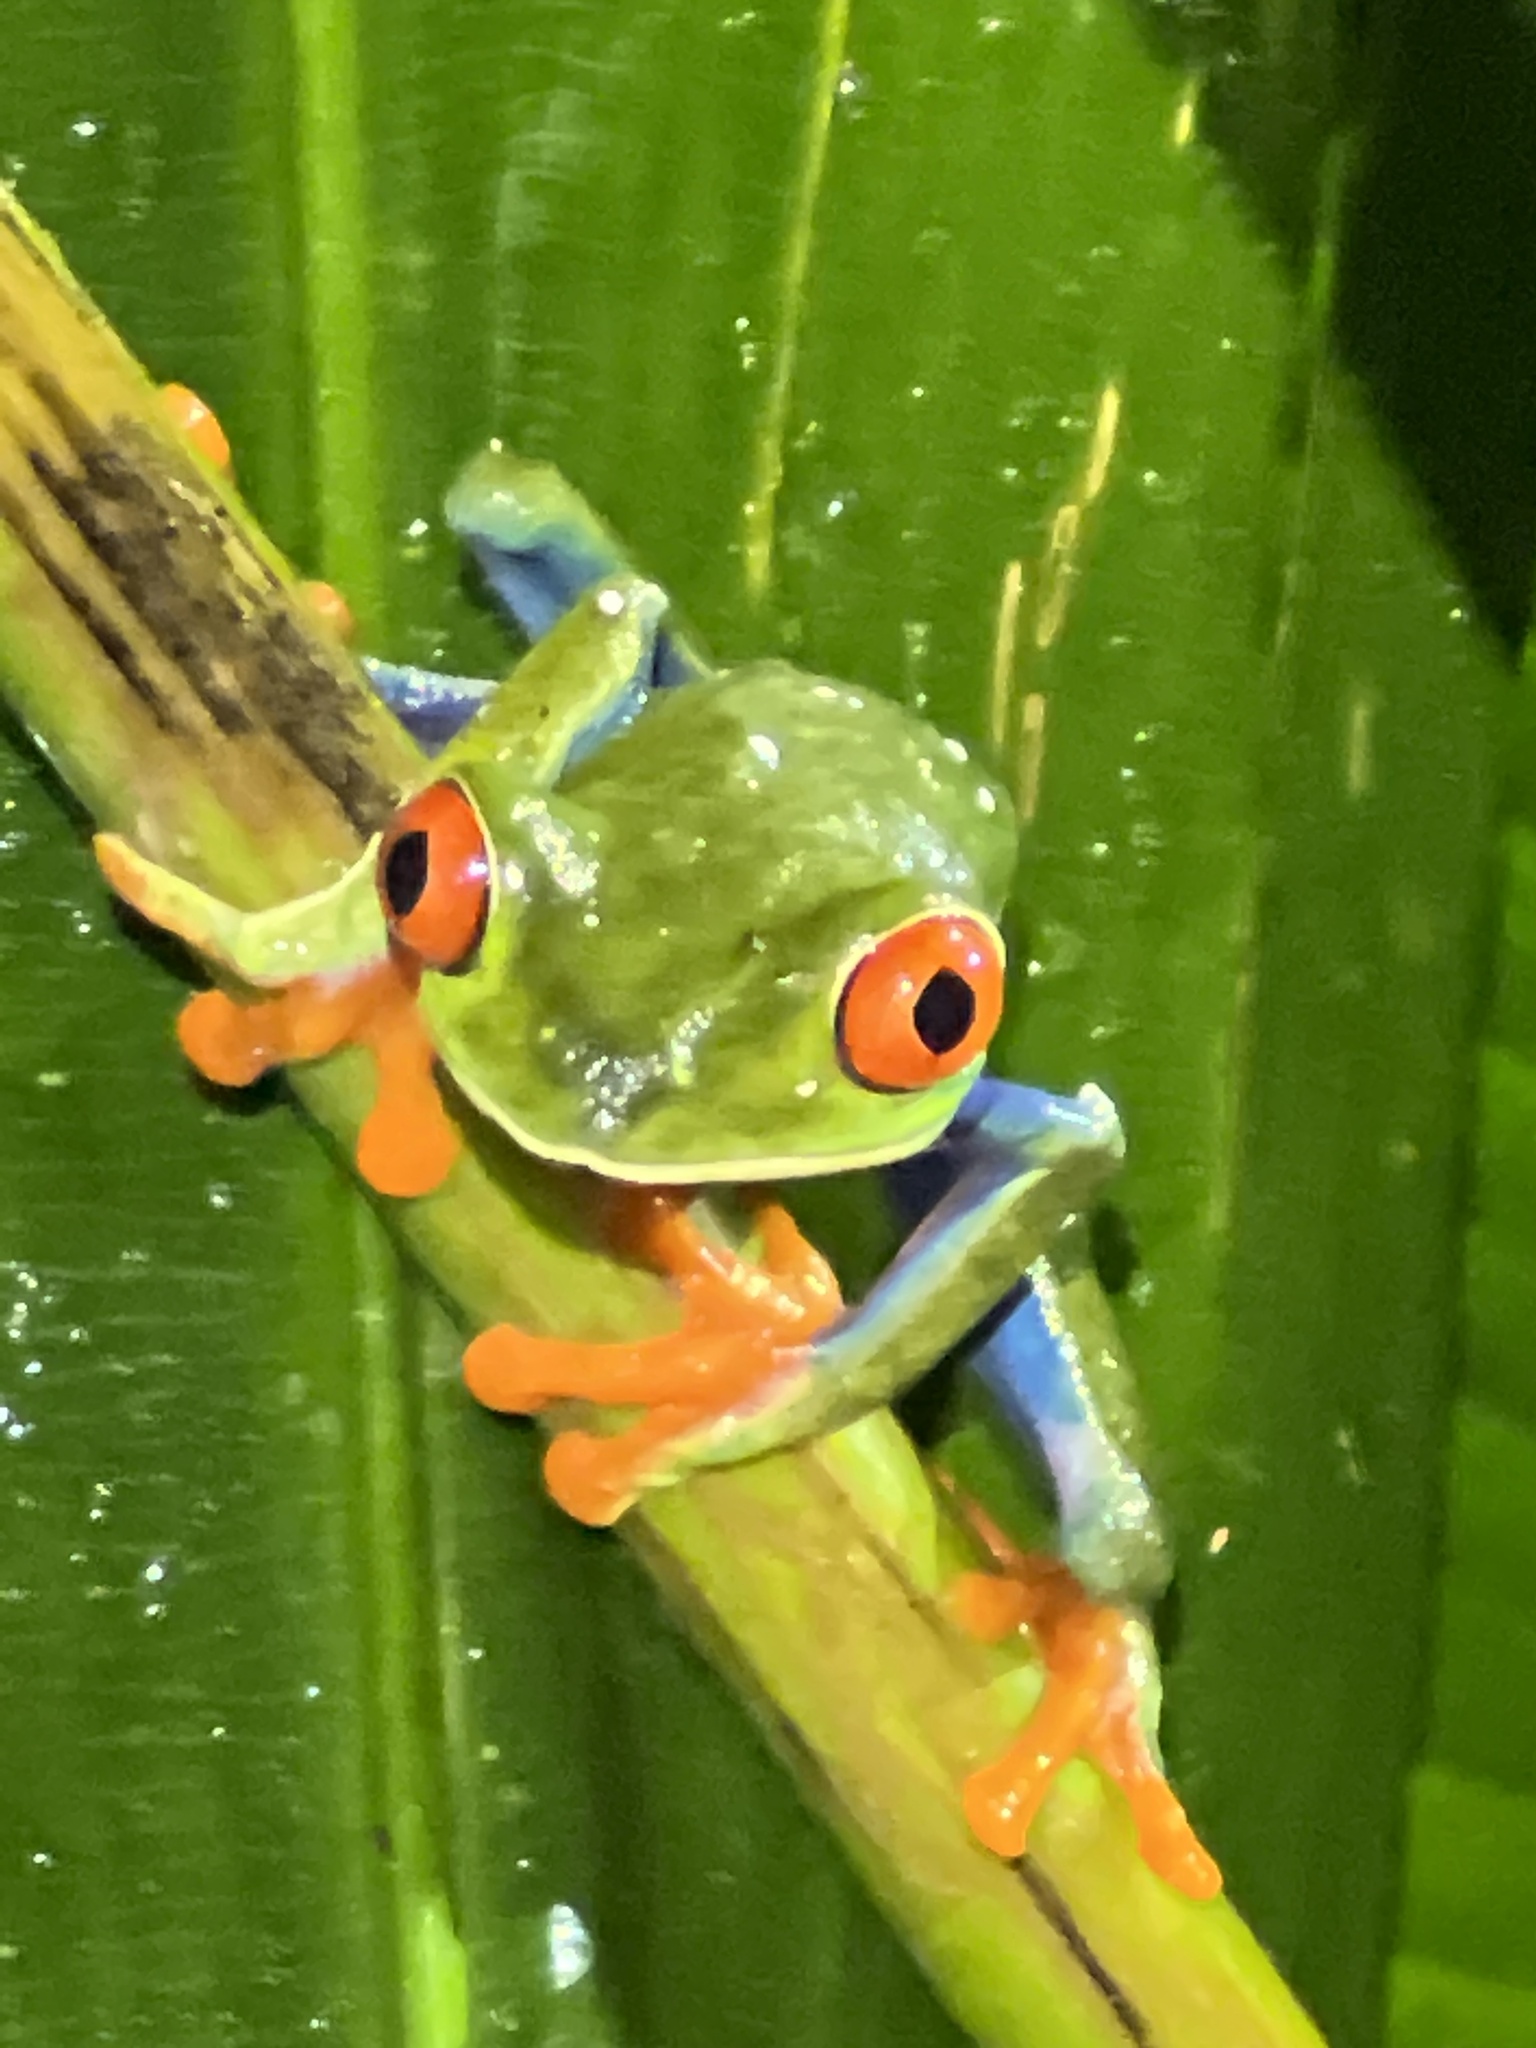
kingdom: Animalia
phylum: Chordata
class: Amphibia
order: Anura
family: Phyllomedusidae
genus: Agalychnis
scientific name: Agalychnis callidryas
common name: Red-eyed treefrog
